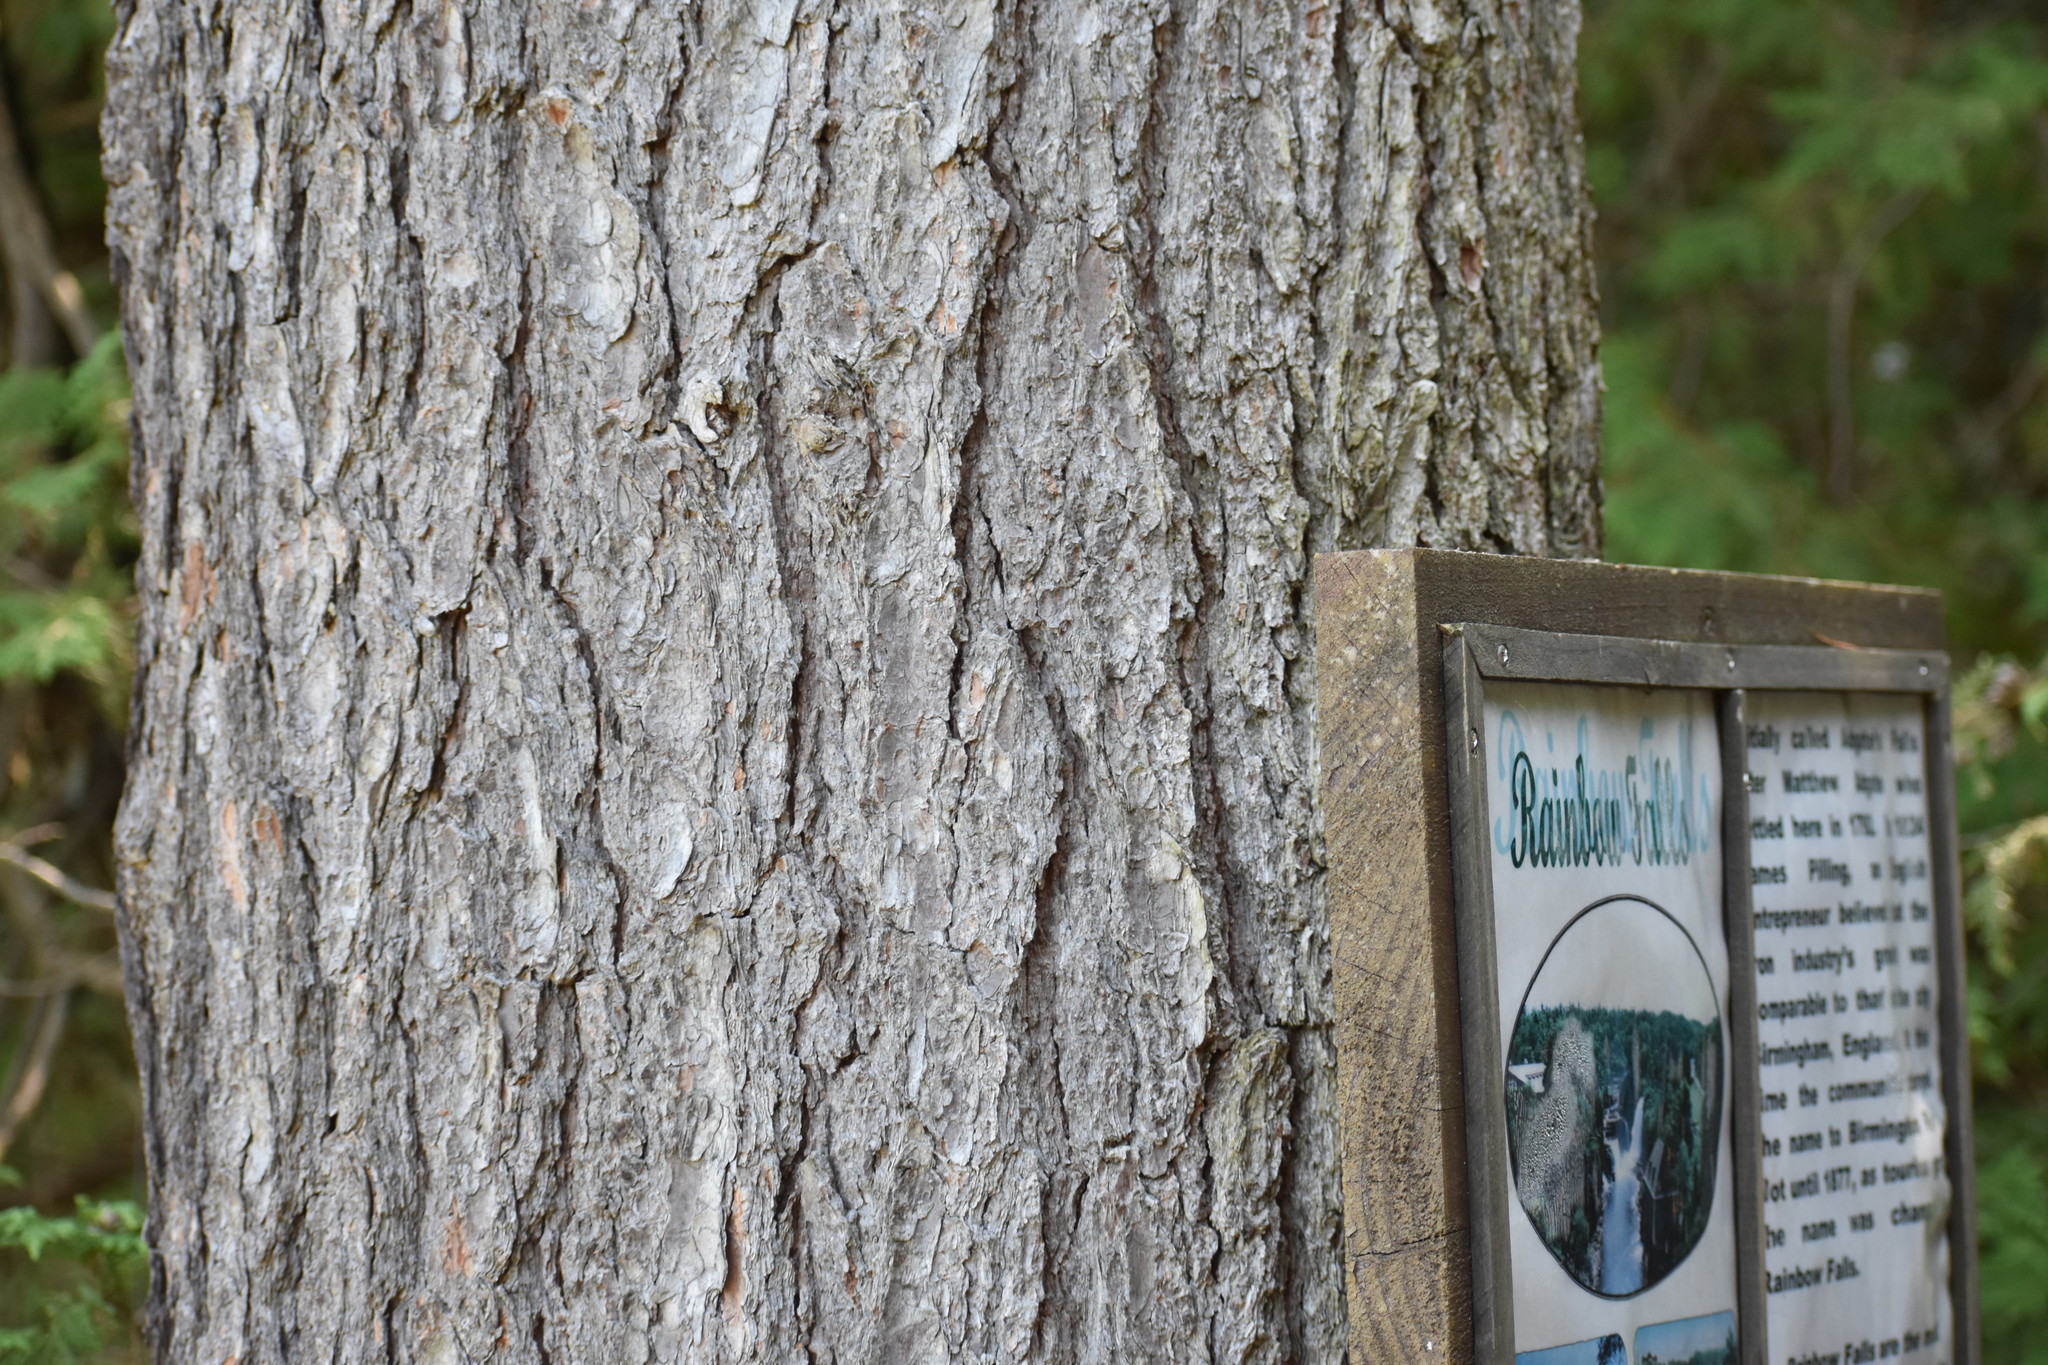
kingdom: Plantae
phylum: Tracheophyta
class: Pinopsida
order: Pinales
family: Pinaceae
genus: Pinus
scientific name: Pinus strobus
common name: Weymouth pine
